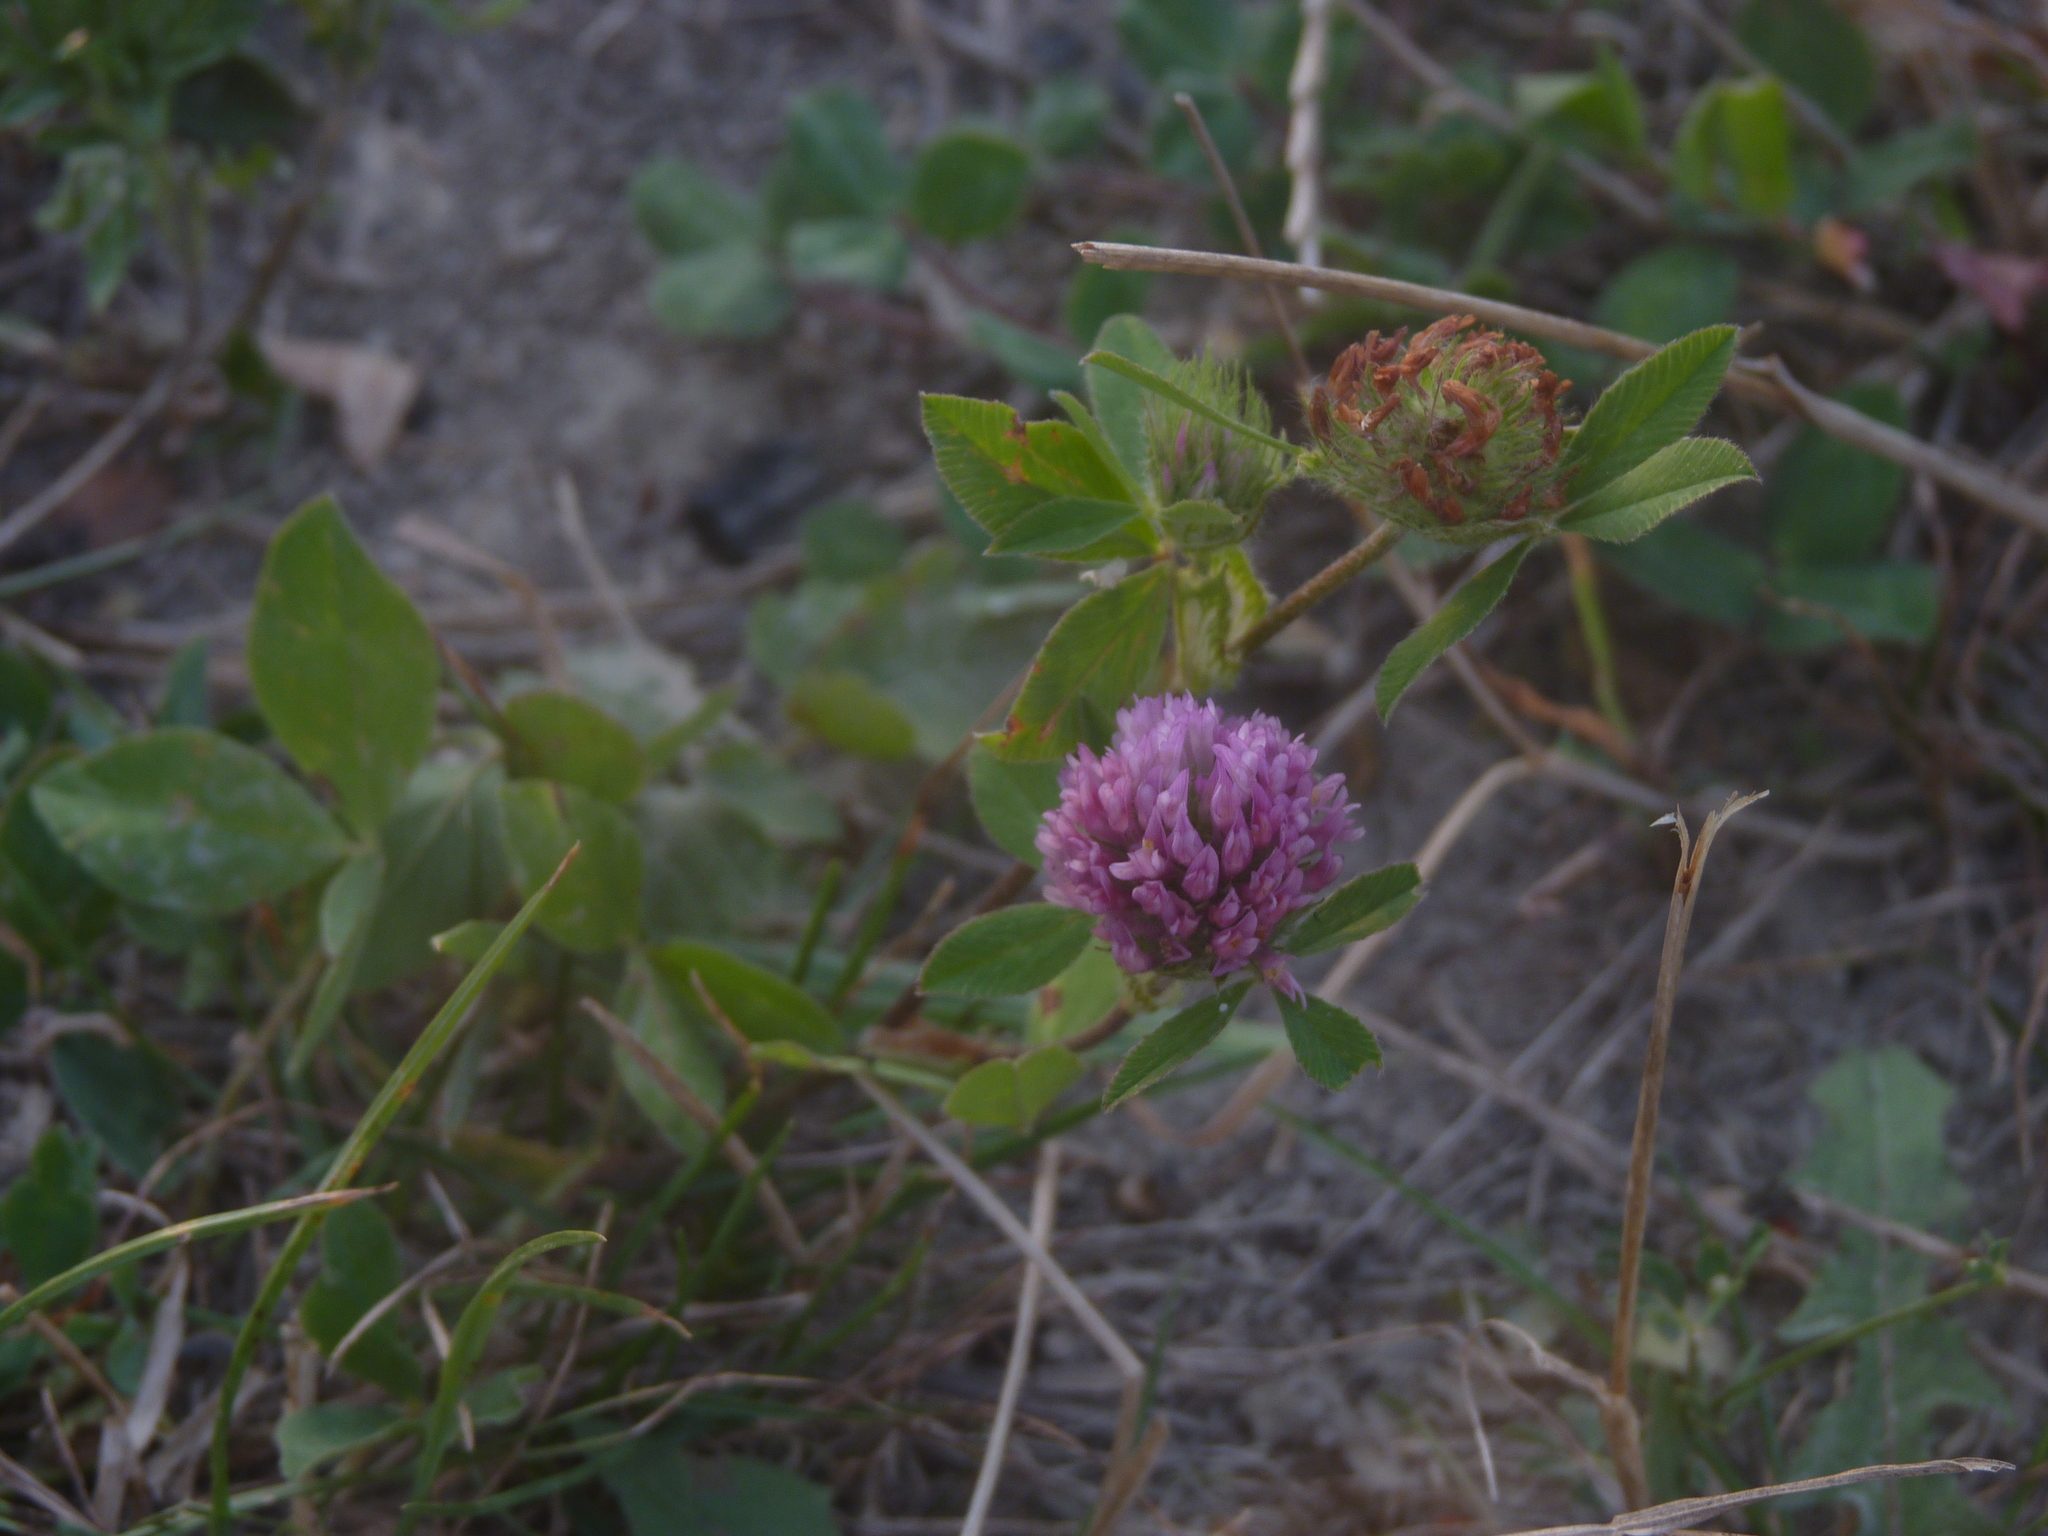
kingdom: Plantae
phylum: Tracheophyta
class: Magnoliopsida
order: Fabales
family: Fabaceae
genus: Trifolium
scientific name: Trifolium pratense
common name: Red clover
